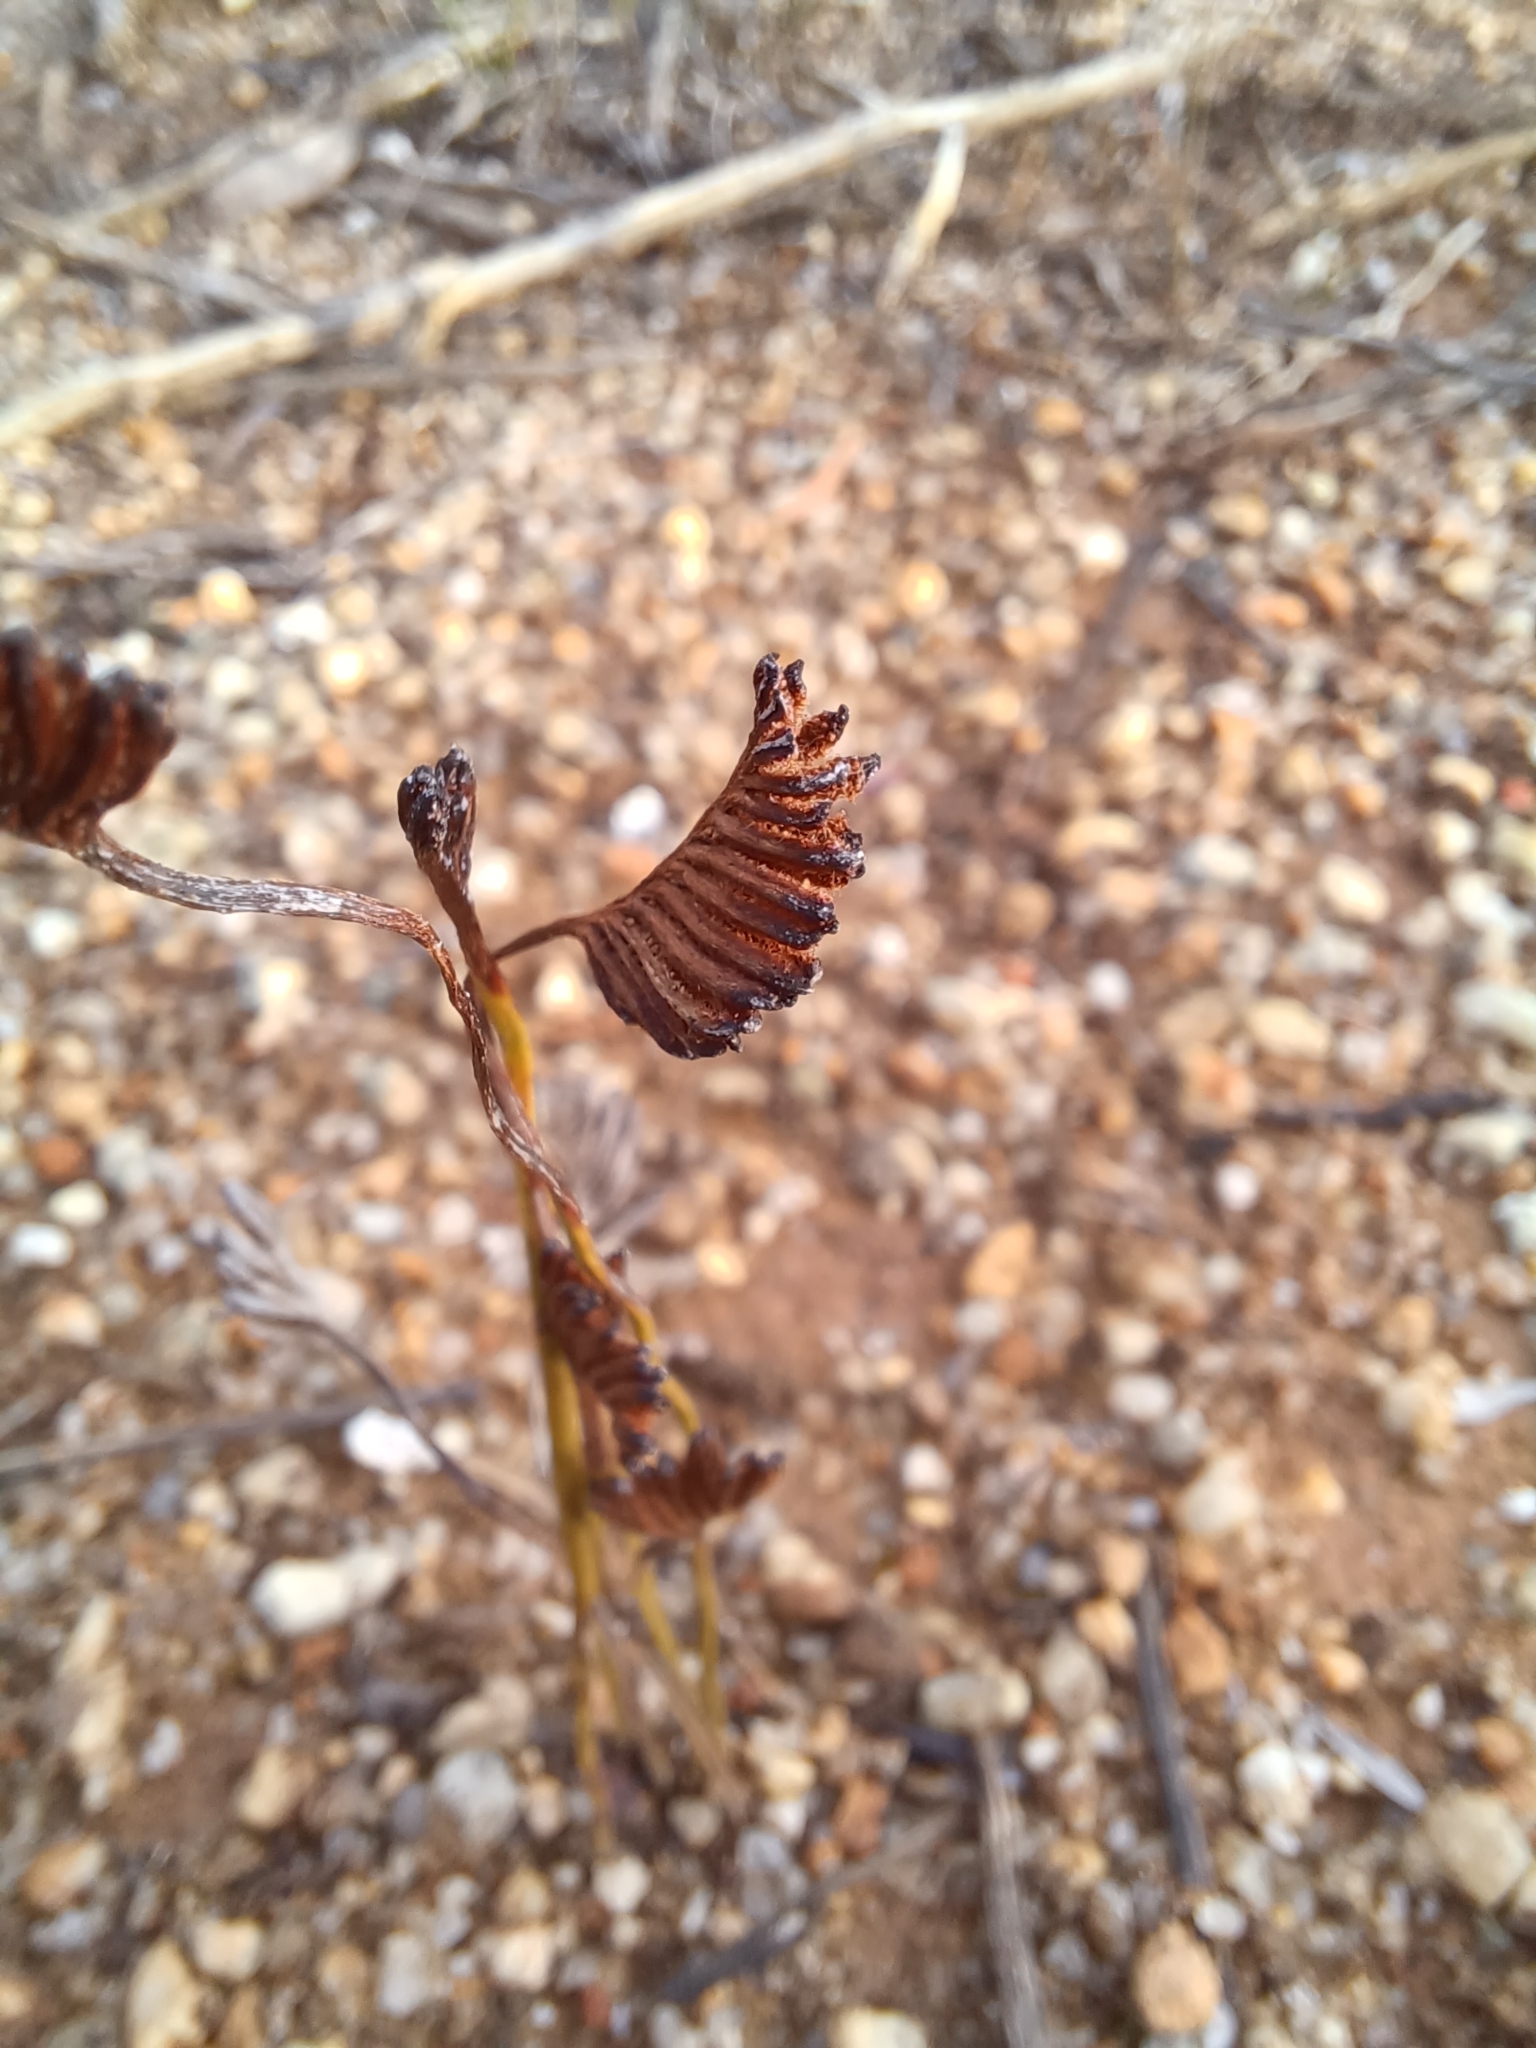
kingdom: Plantae
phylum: Tracheophyta
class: Polypodiopsida
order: Schizaeales
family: Schizaeaceae
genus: Schizaea
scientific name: Schizaea bifida
